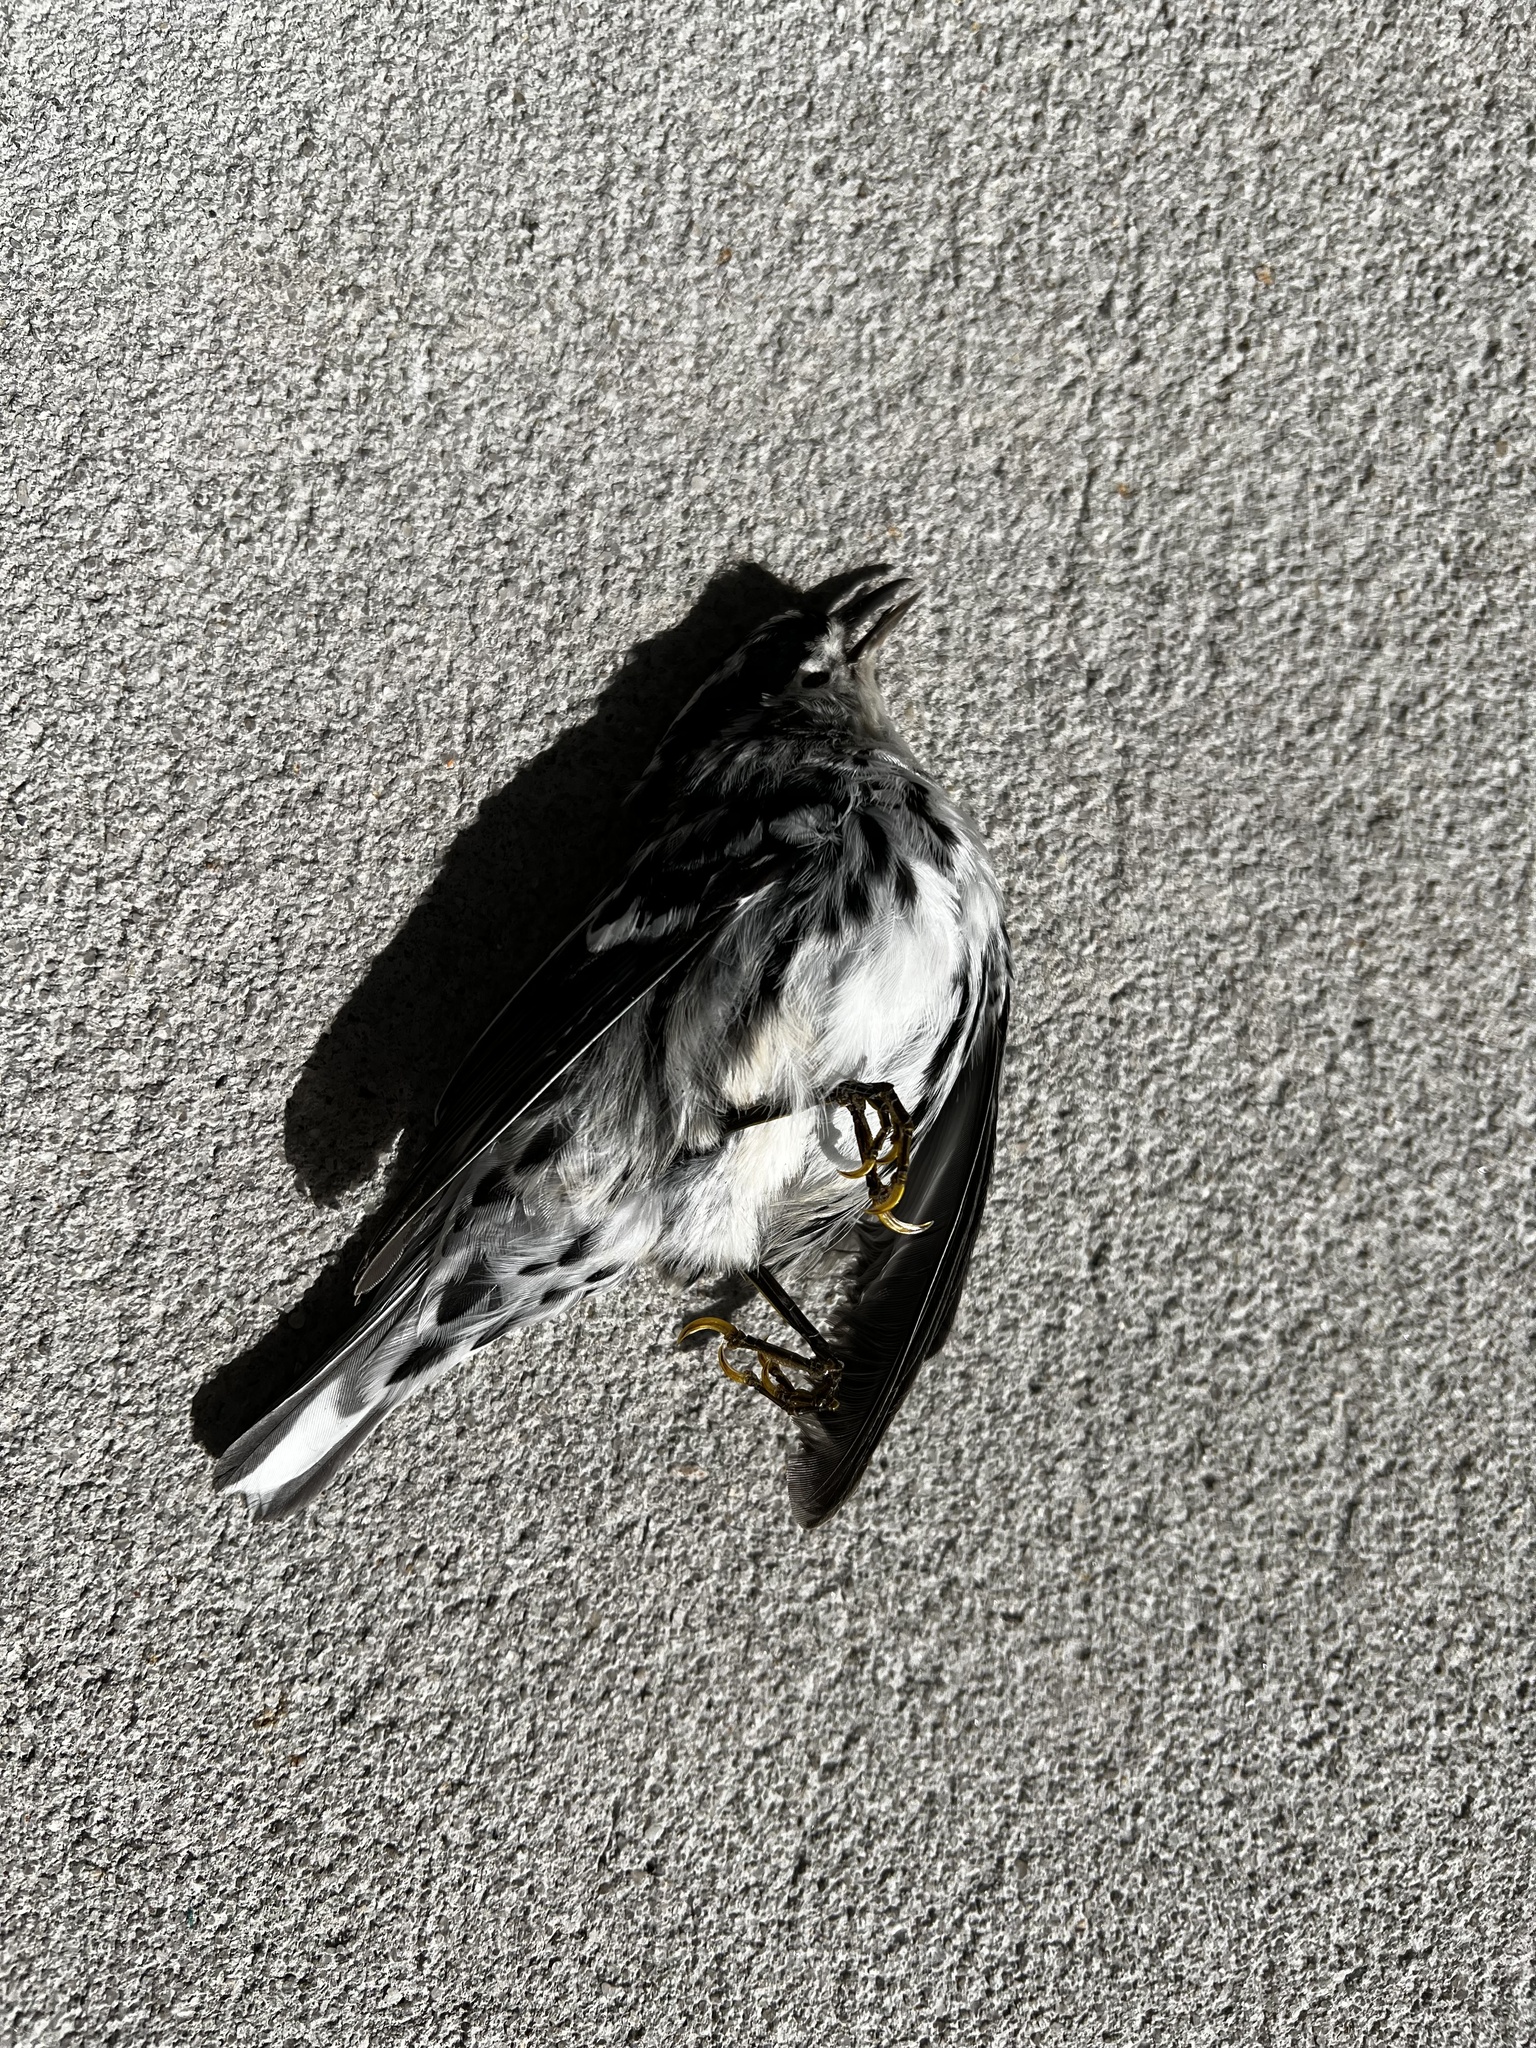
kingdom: Animalia
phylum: Chordata
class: Aves
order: Passeriformes
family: Parulidae
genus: Mniotilta
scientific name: Mniotilta varia
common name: Black-and-white warbler
